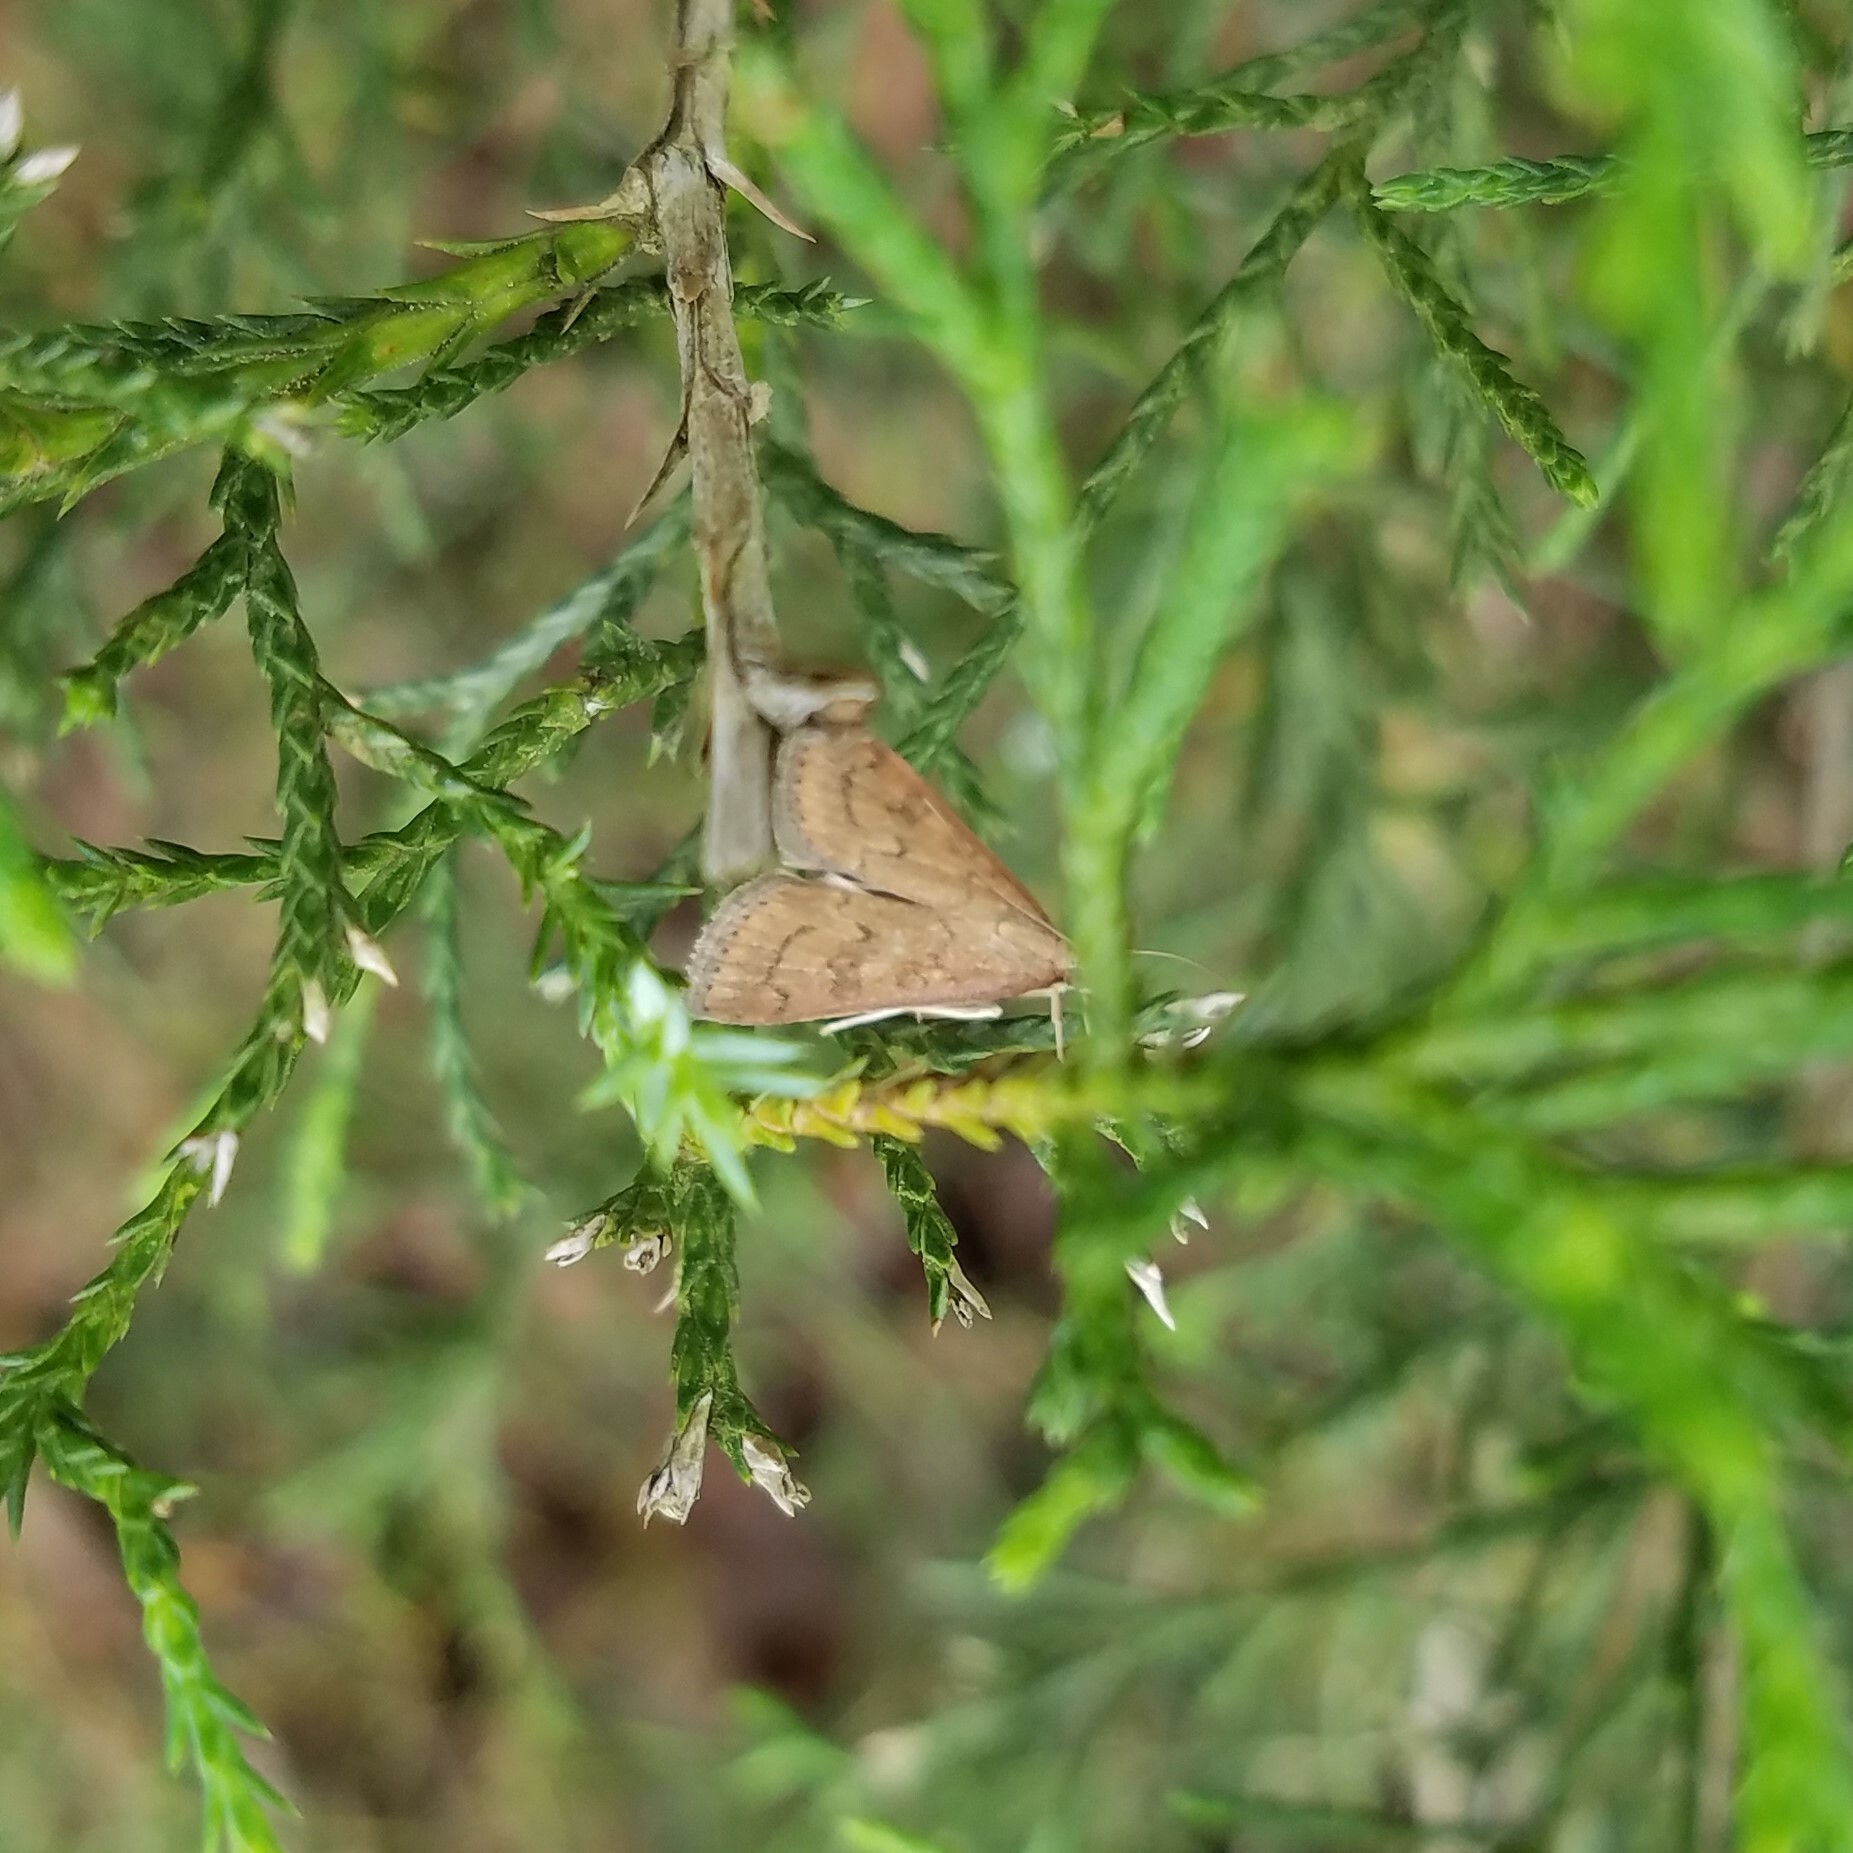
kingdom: Animalia
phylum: Arthropoda
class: Insecta
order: Lepidoptera
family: Crambidae
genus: Udea
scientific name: Udea rubigalis
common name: Celery leaftier moth
